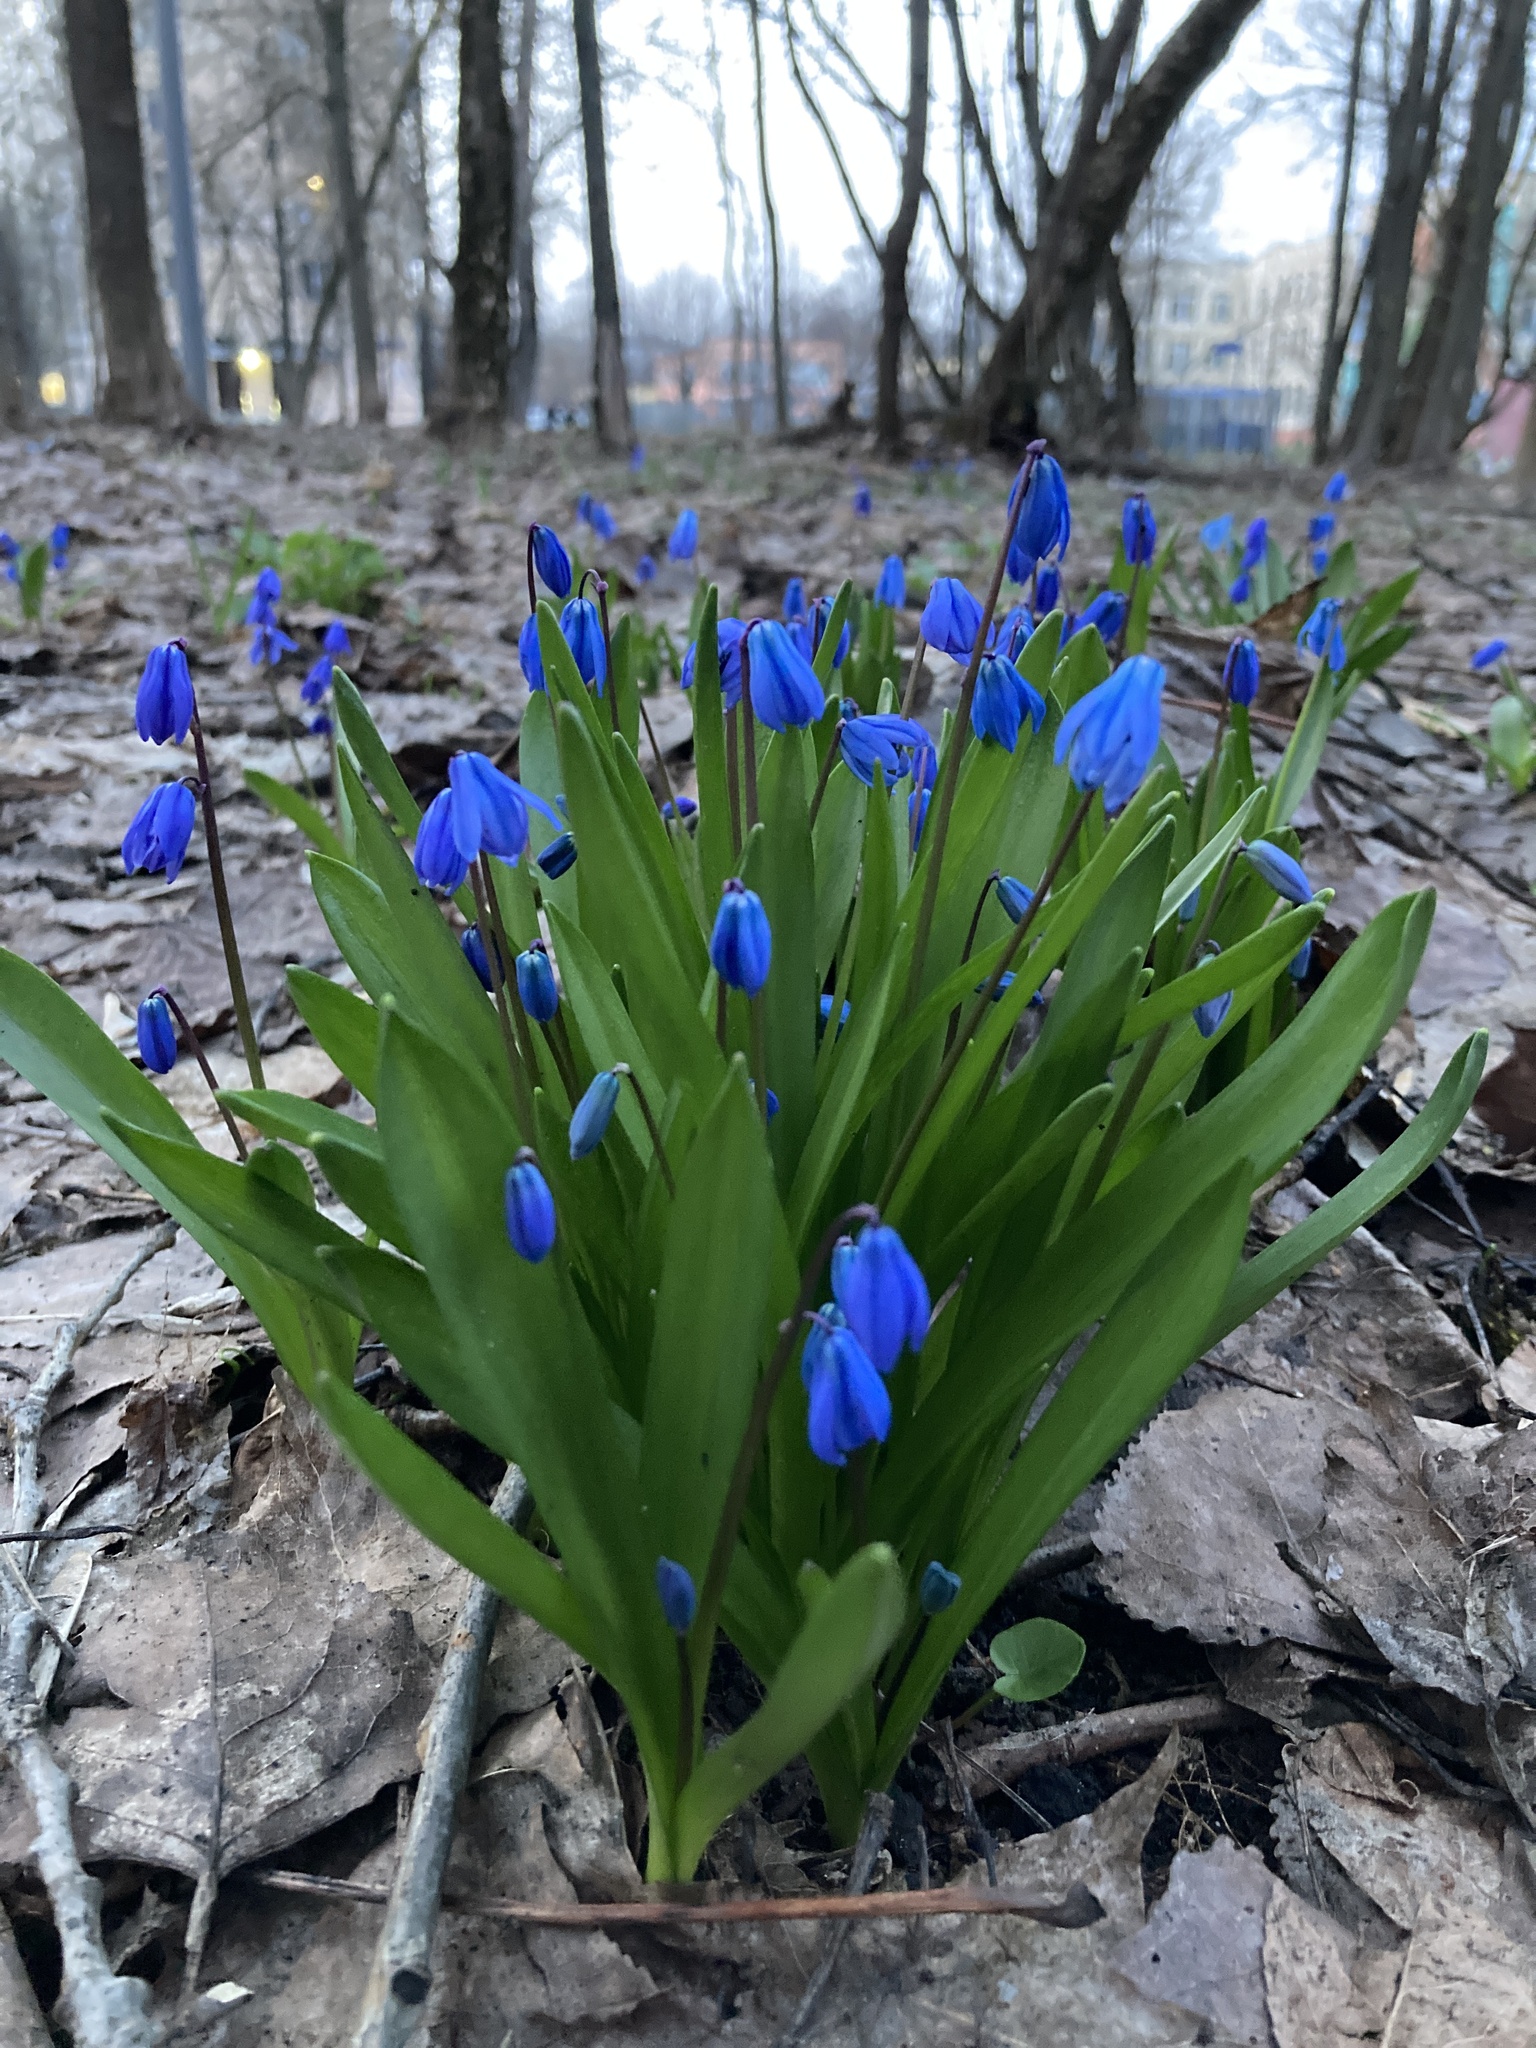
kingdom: Plantae
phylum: Tracheophyta
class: Liliopsida
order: Asparagales
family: Asparagaceae
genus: Scilla
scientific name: Scilla siberica
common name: Siberian squill
